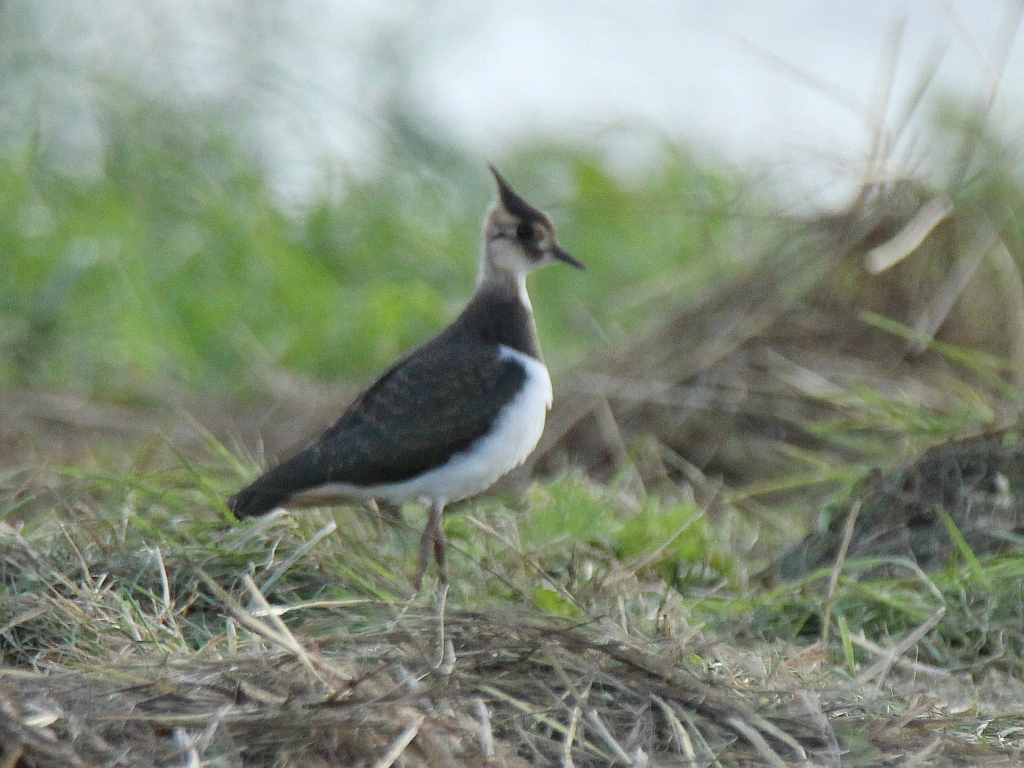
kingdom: Animalia
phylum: Chordata
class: Aves
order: Charadriiformes
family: Charadriidae
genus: Vanellus
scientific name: Vanellus vanellus
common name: Northern lapwing
